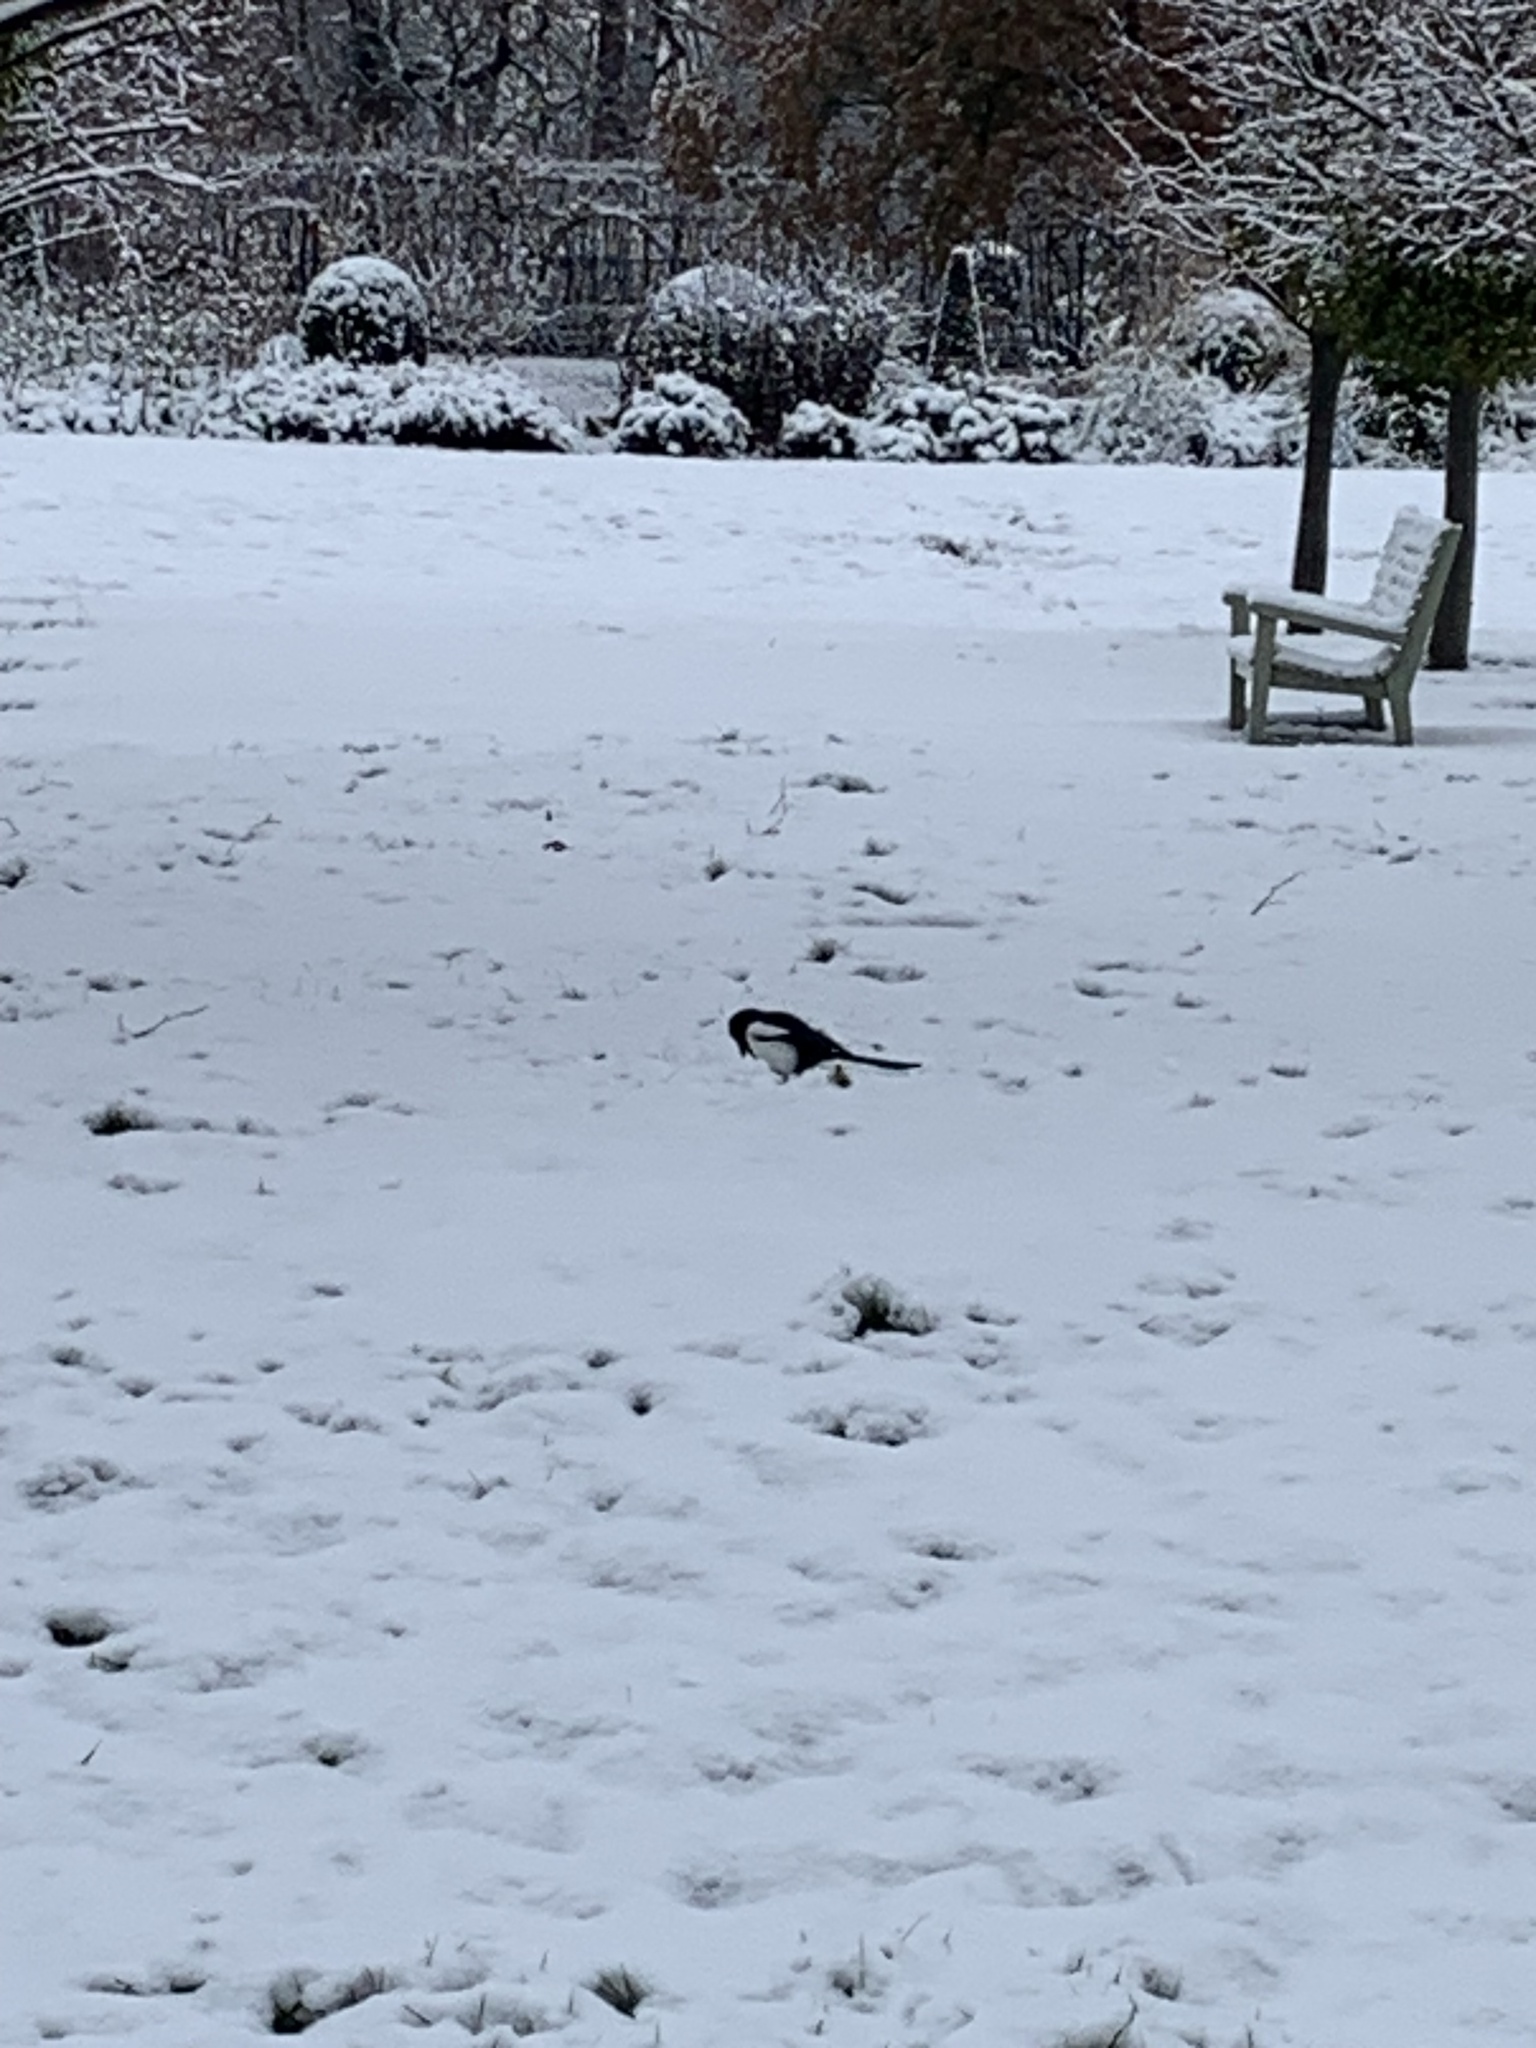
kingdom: Animalia
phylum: Chordata
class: Aves
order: Passeriformes
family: Corvidae
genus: Pica
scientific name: Pica pica
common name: Eurasian magpie
